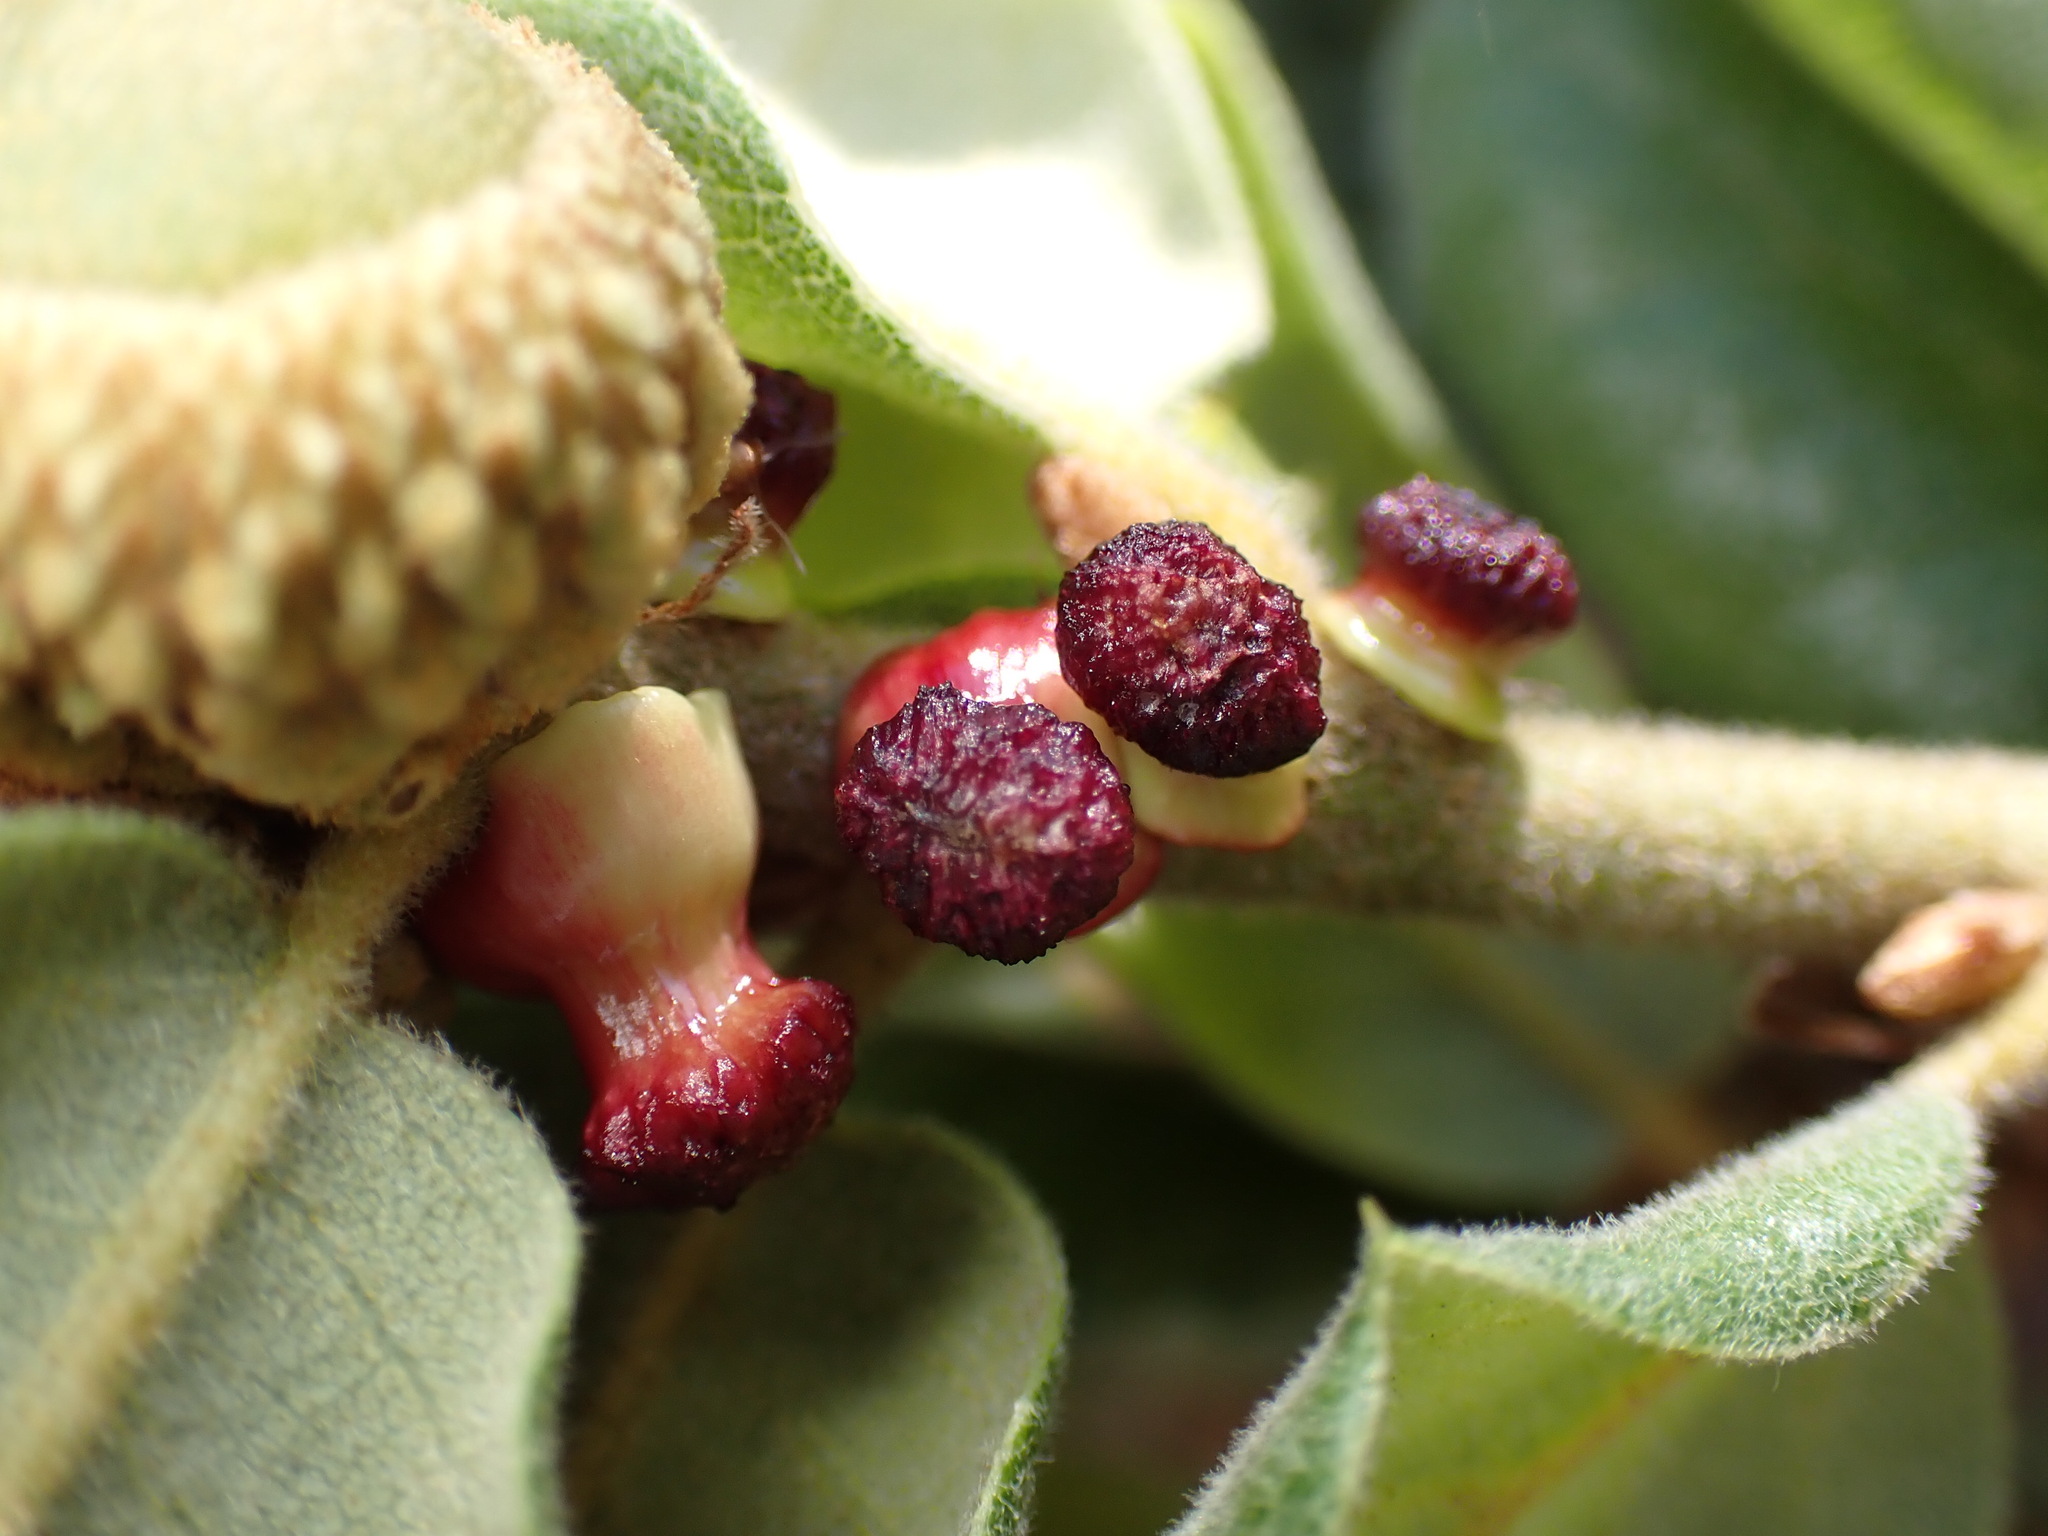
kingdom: Animalia
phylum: Arthropoda
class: Insecta
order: Hymenoptera
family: Cynipidae
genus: Disholcaspis
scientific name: Disholcaspis prehensa
